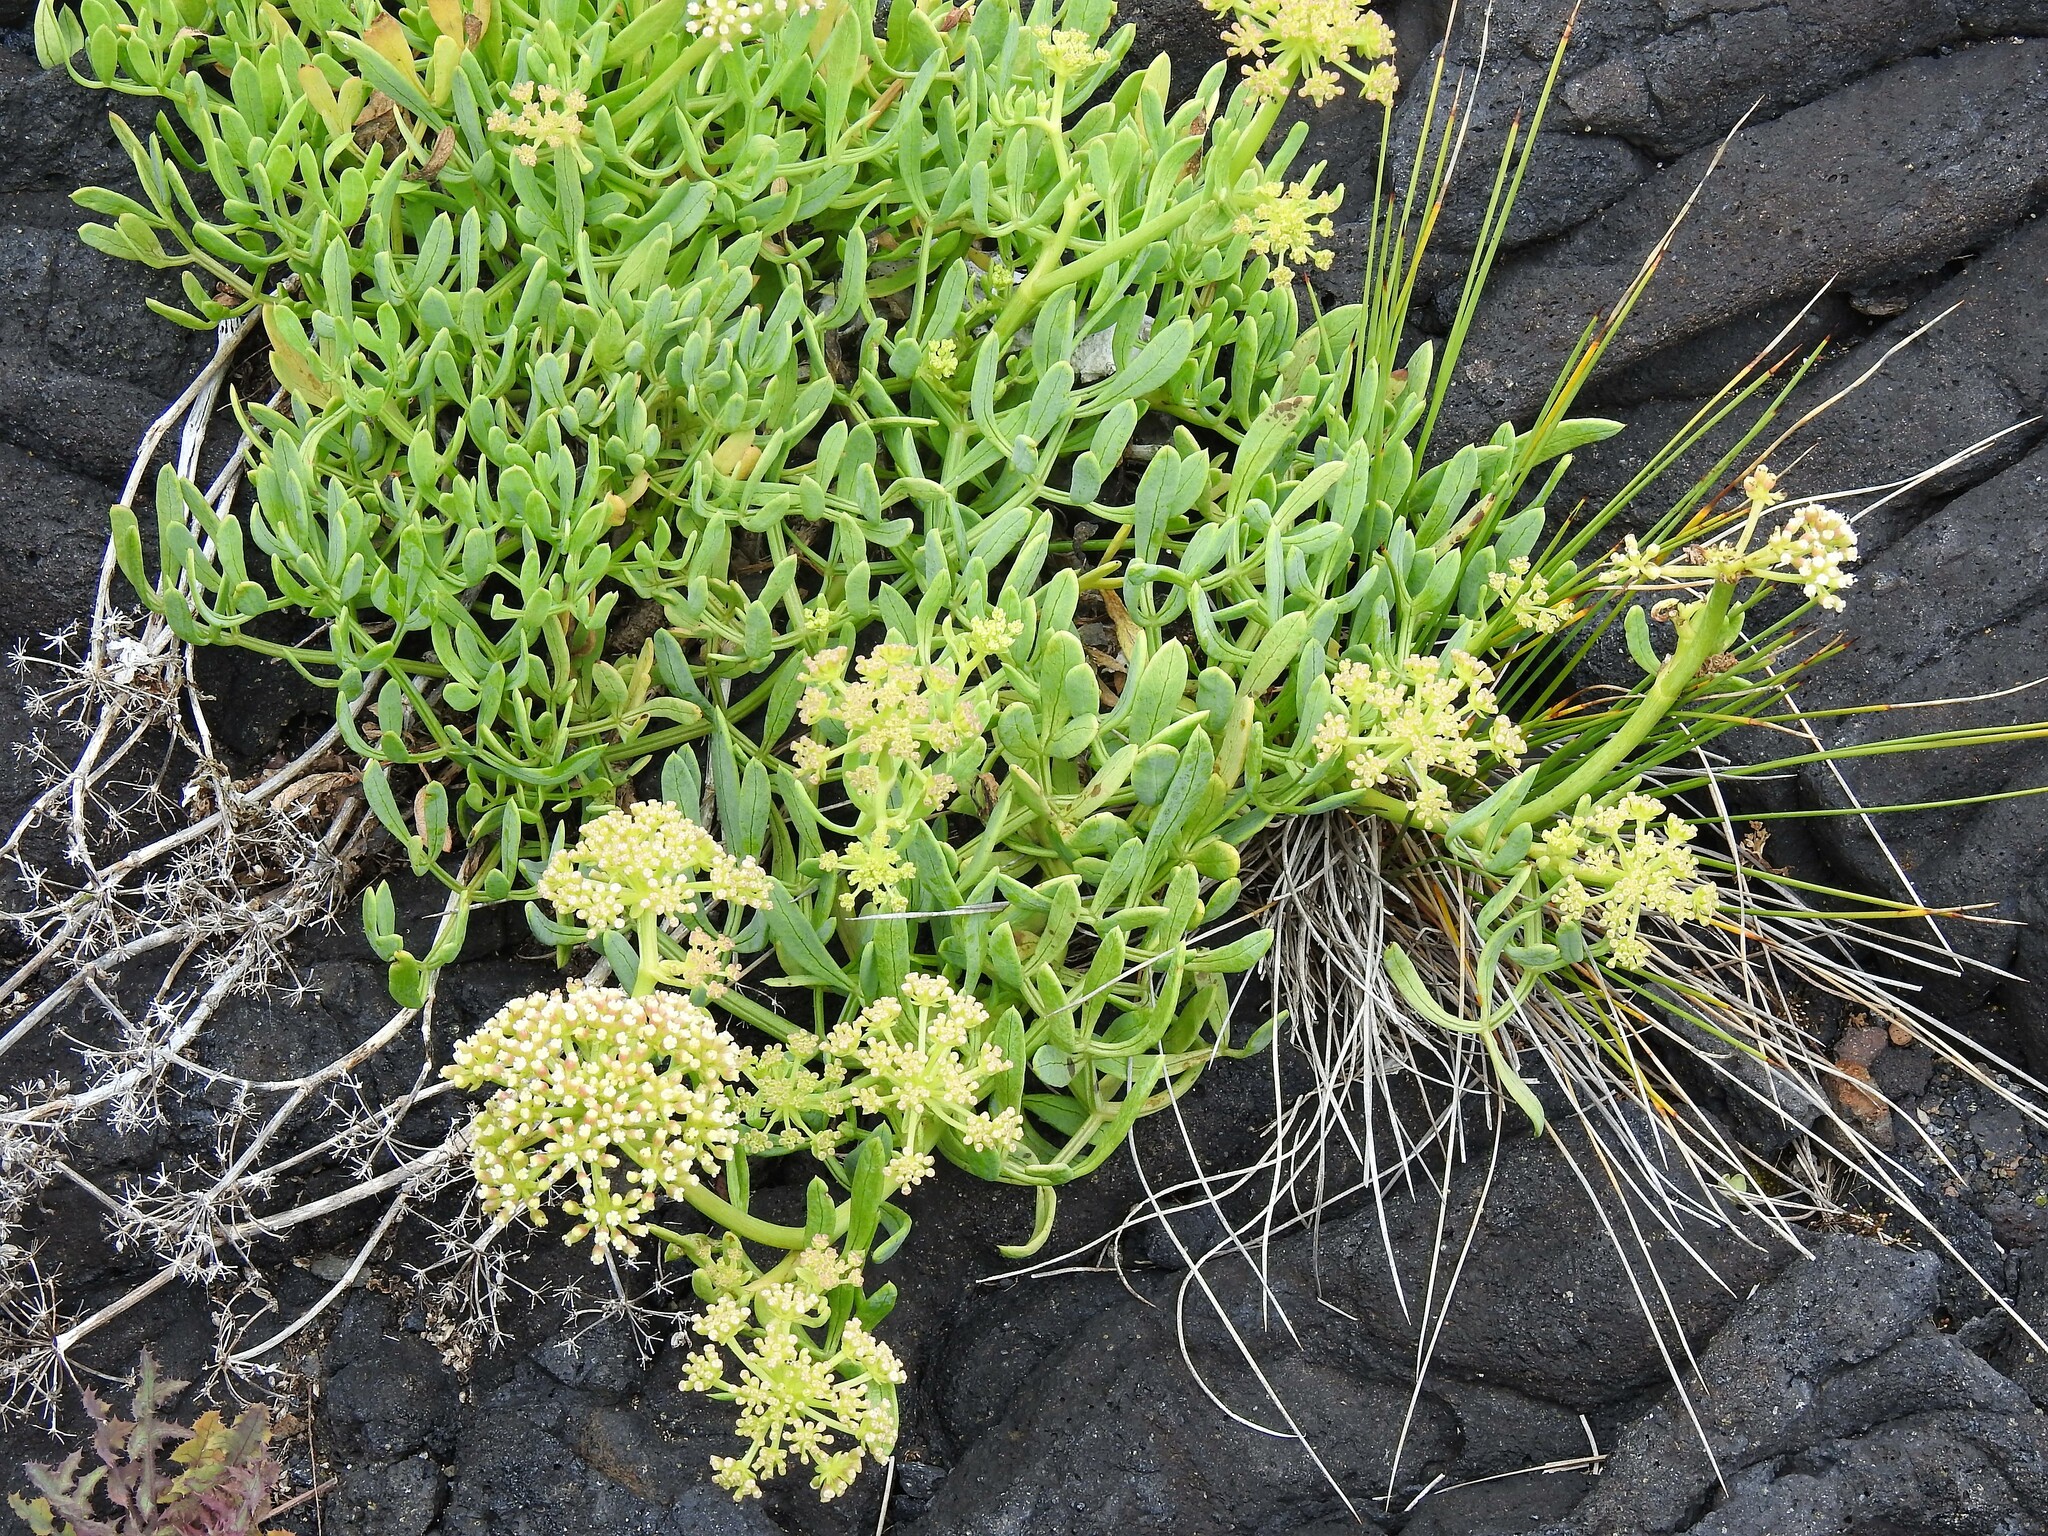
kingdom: Plantae
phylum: Tracheophyta
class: Magnoliopsida
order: Apiales
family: Apiaceae
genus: Crithmum
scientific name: Crithmum maritimum
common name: Rock samphire
